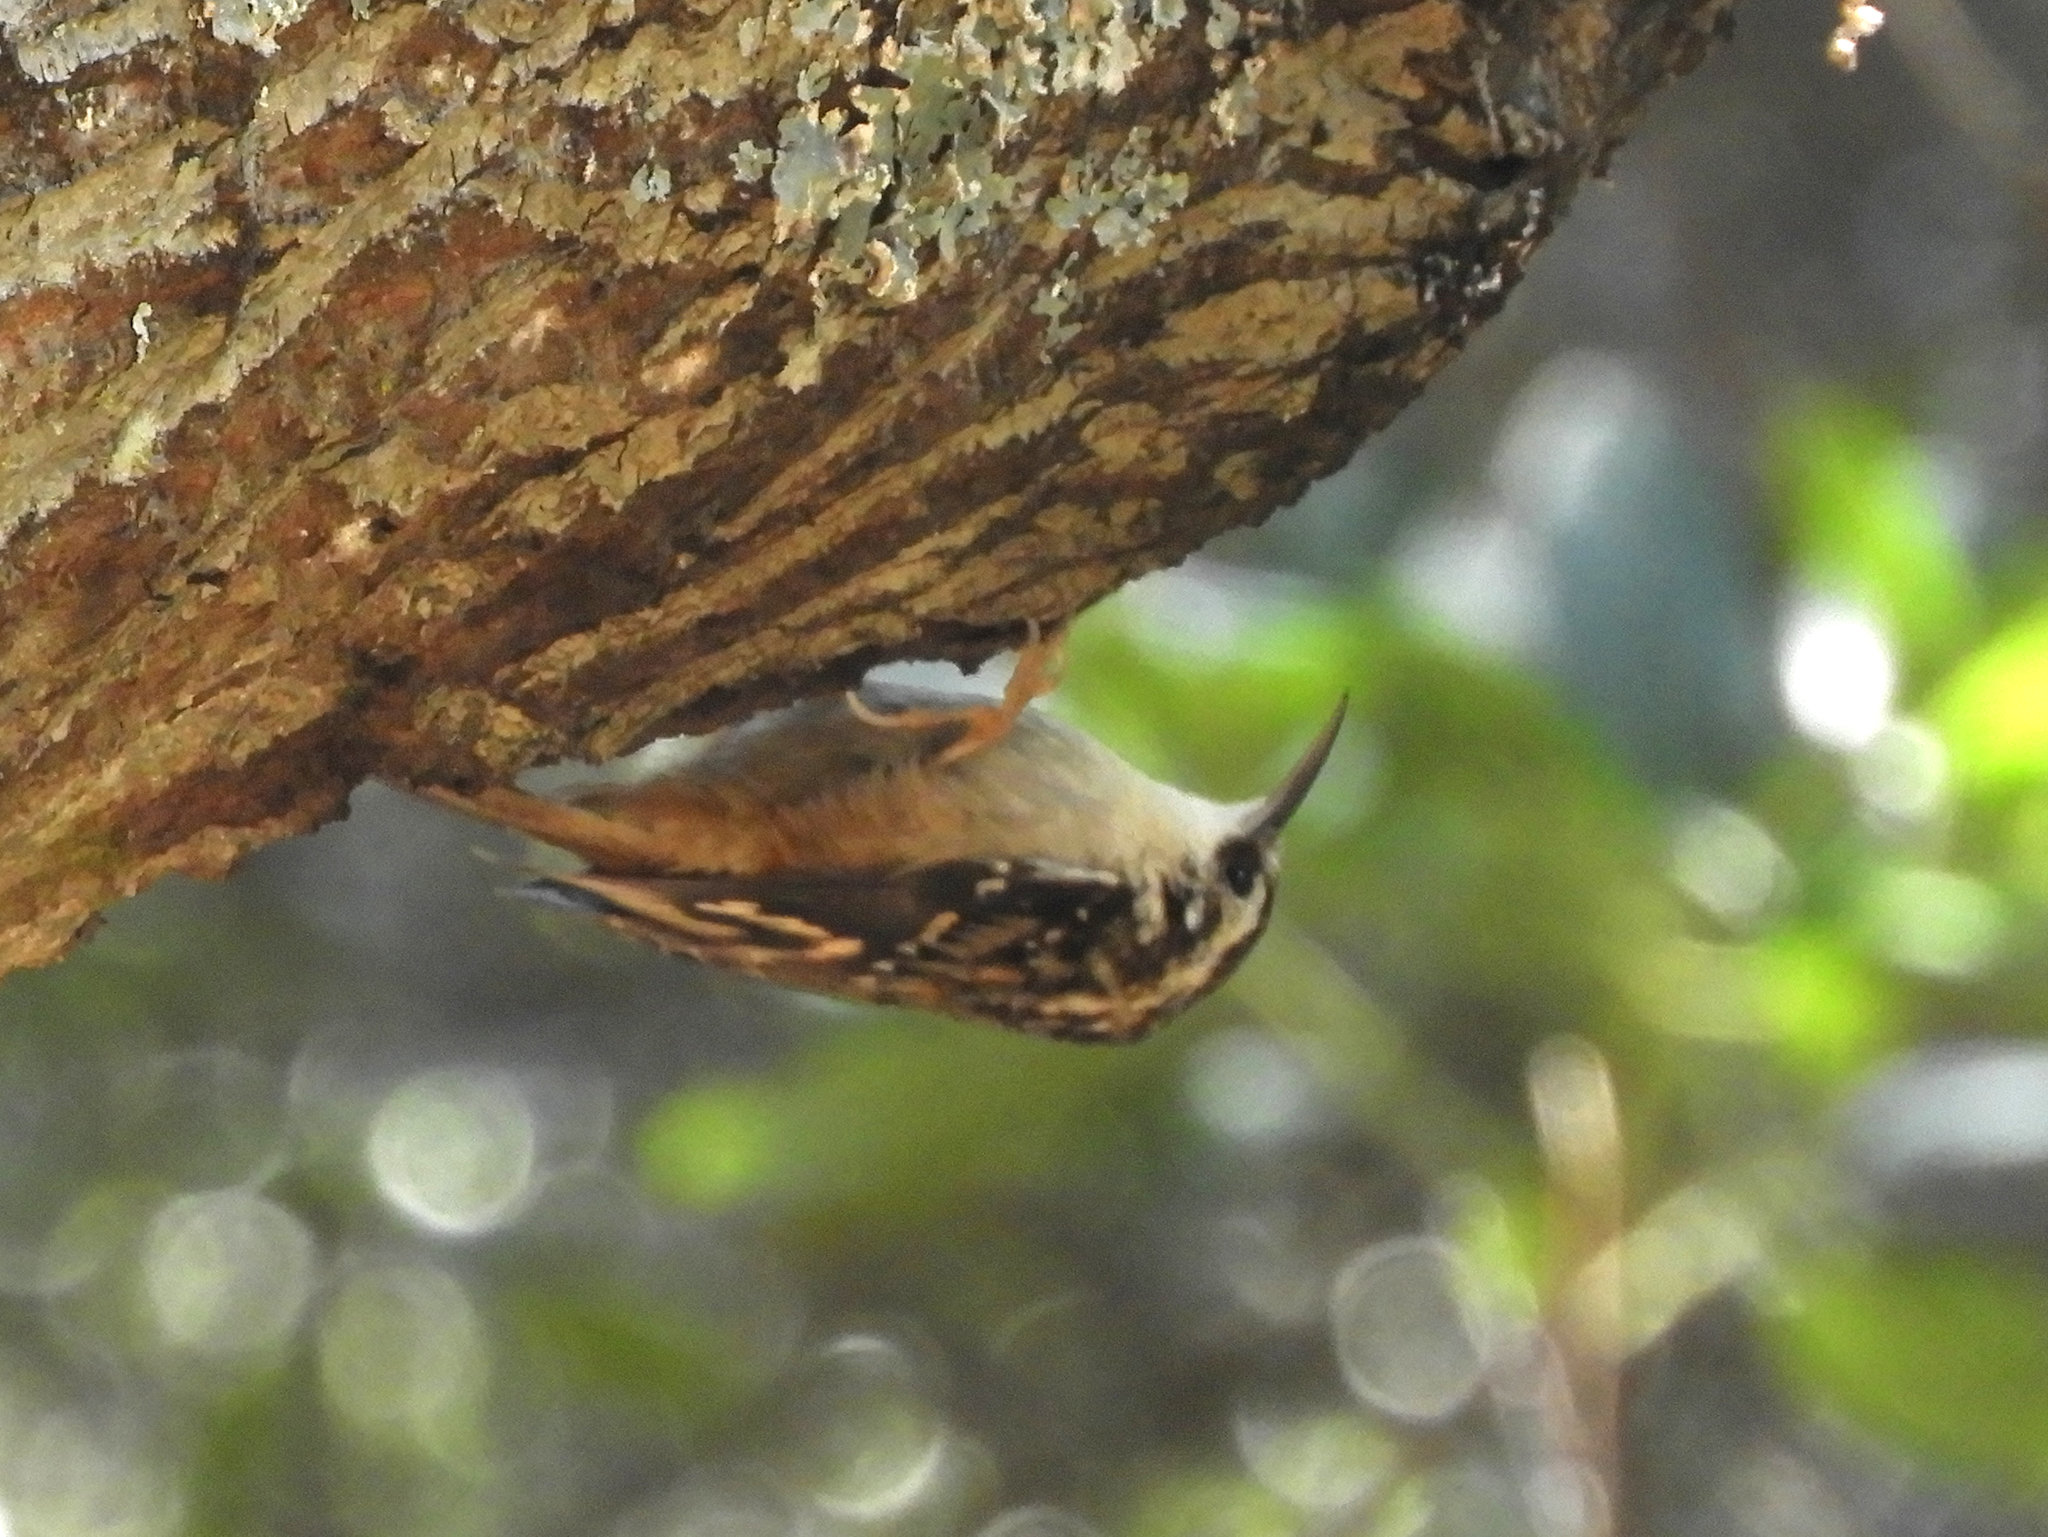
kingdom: Animalia
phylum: Chordata
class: Aves
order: Passeriformes
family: Certhiidae
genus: Certhia
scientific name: Certhia americana
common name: Brown creeper
